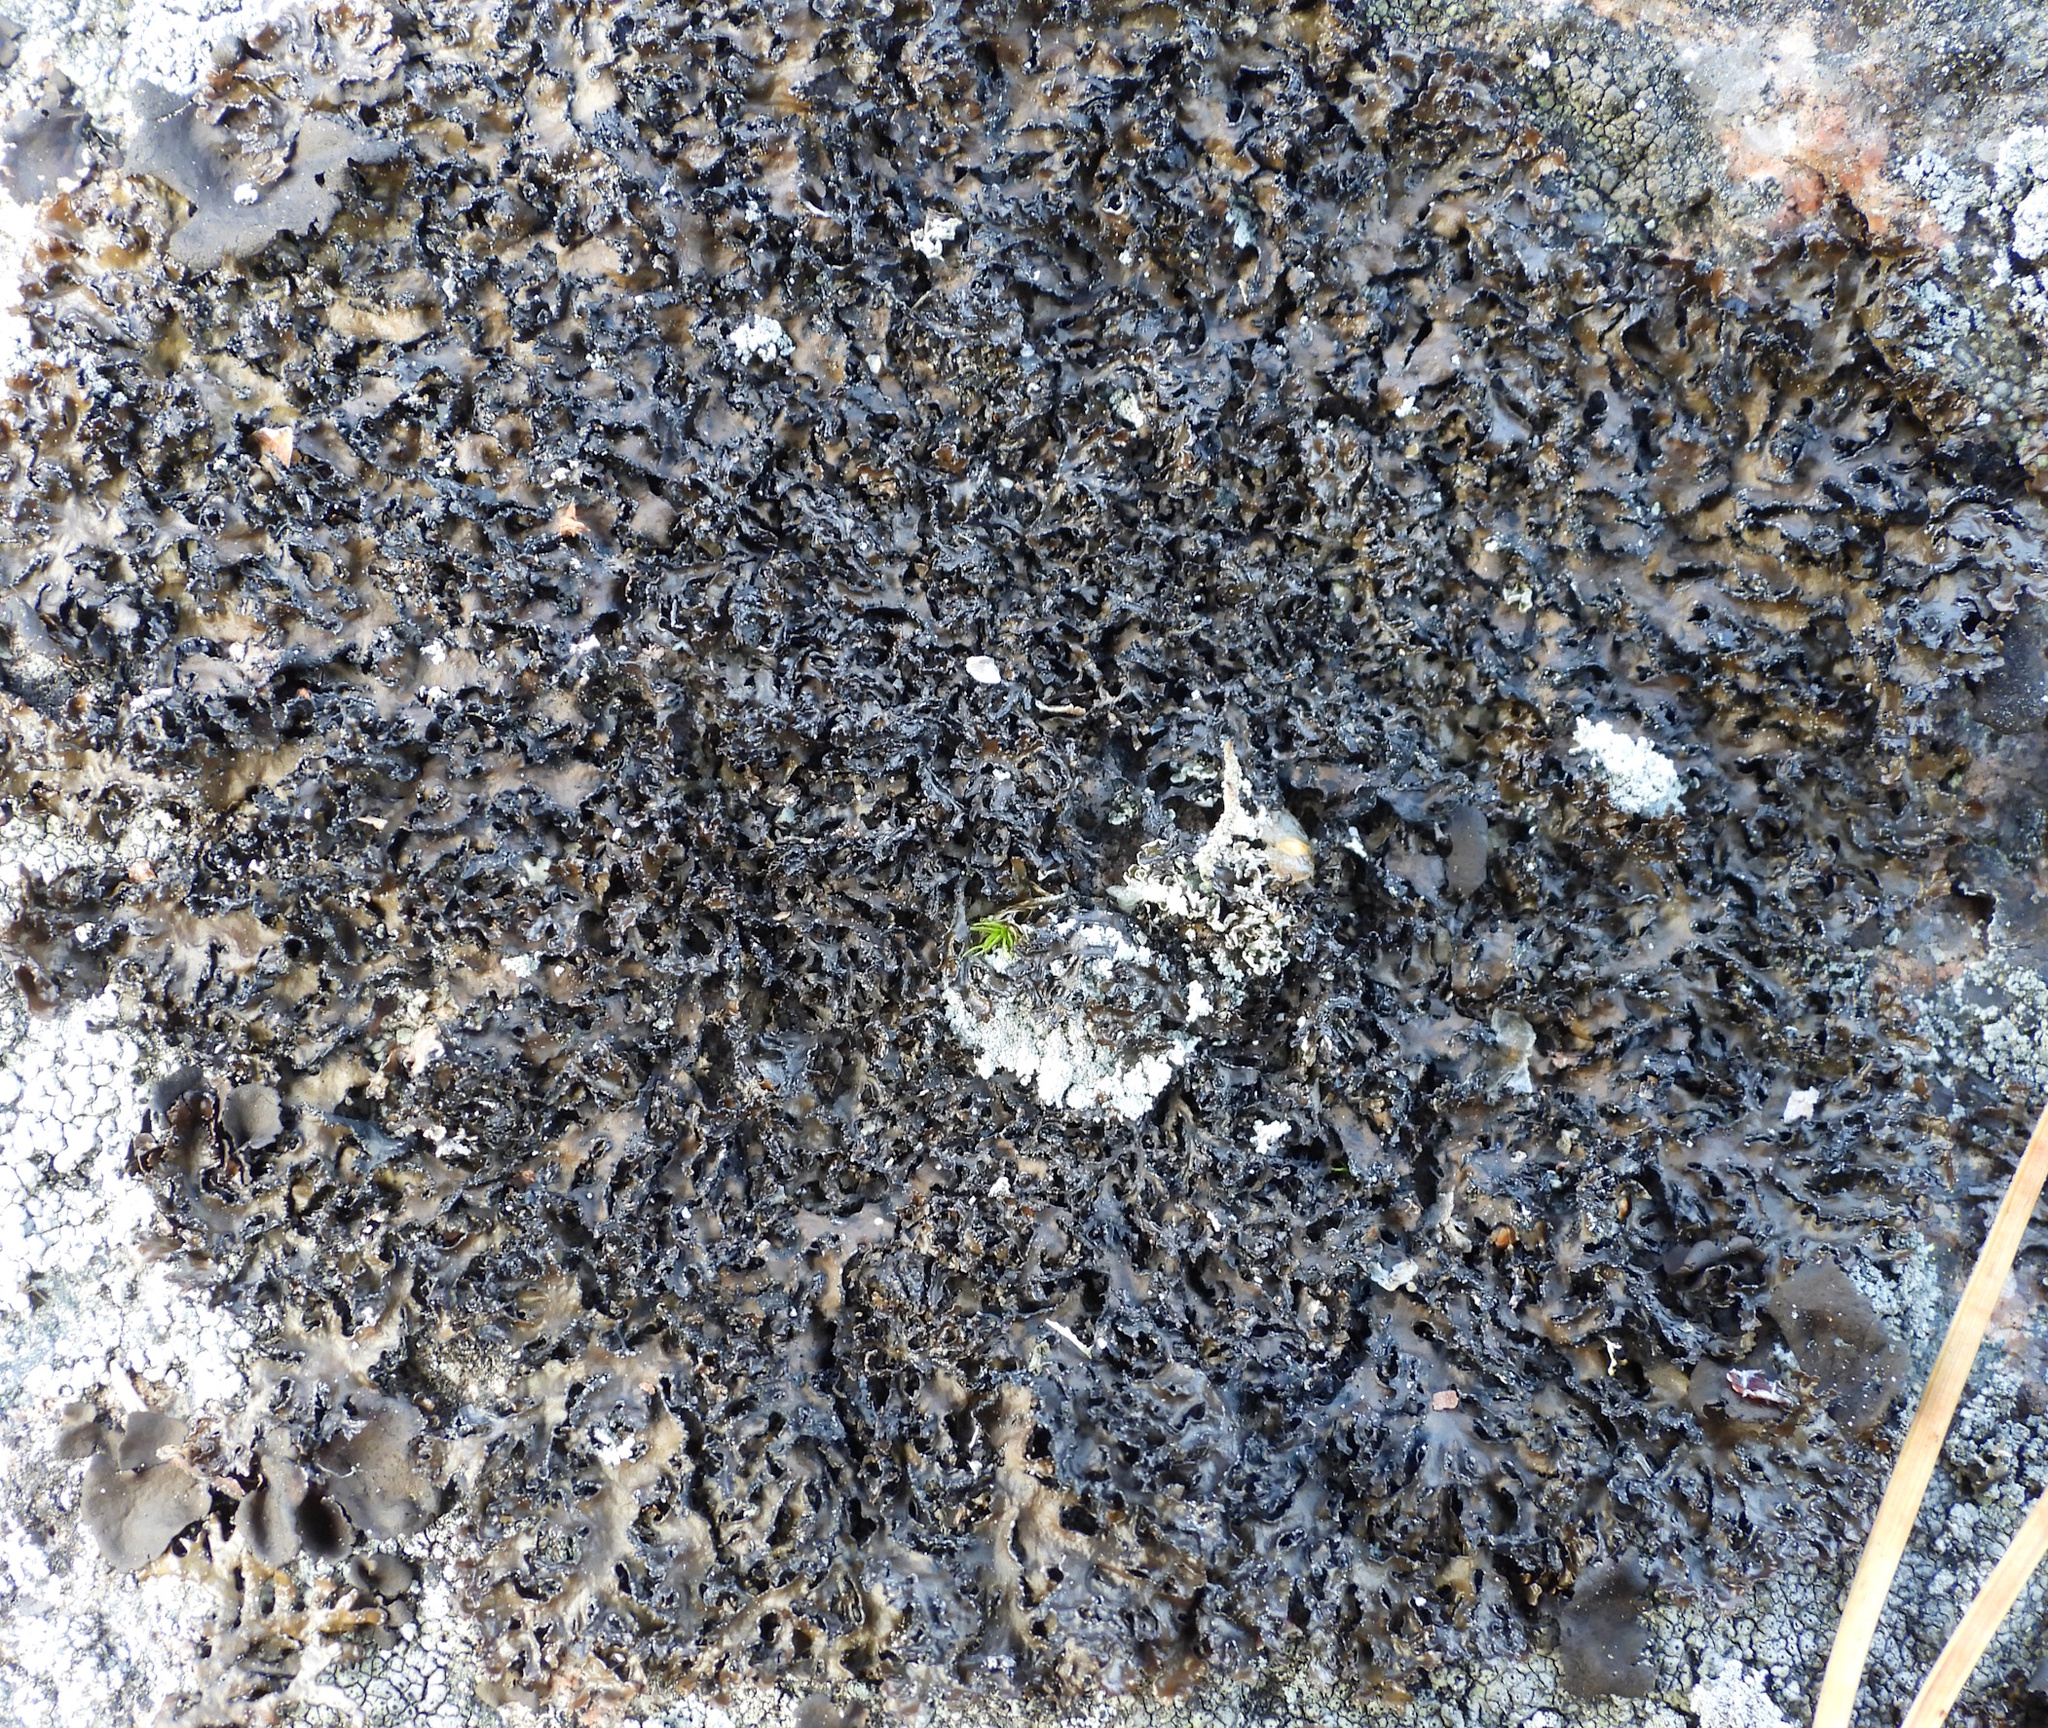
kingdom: Fungi
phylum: Ascomycota
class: Lecanoromycetes
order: Lecanorales
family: Parmeliaceae
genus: Melanelia
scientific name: Melanelia hepatizon
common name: Rimmed camouflage lichen
